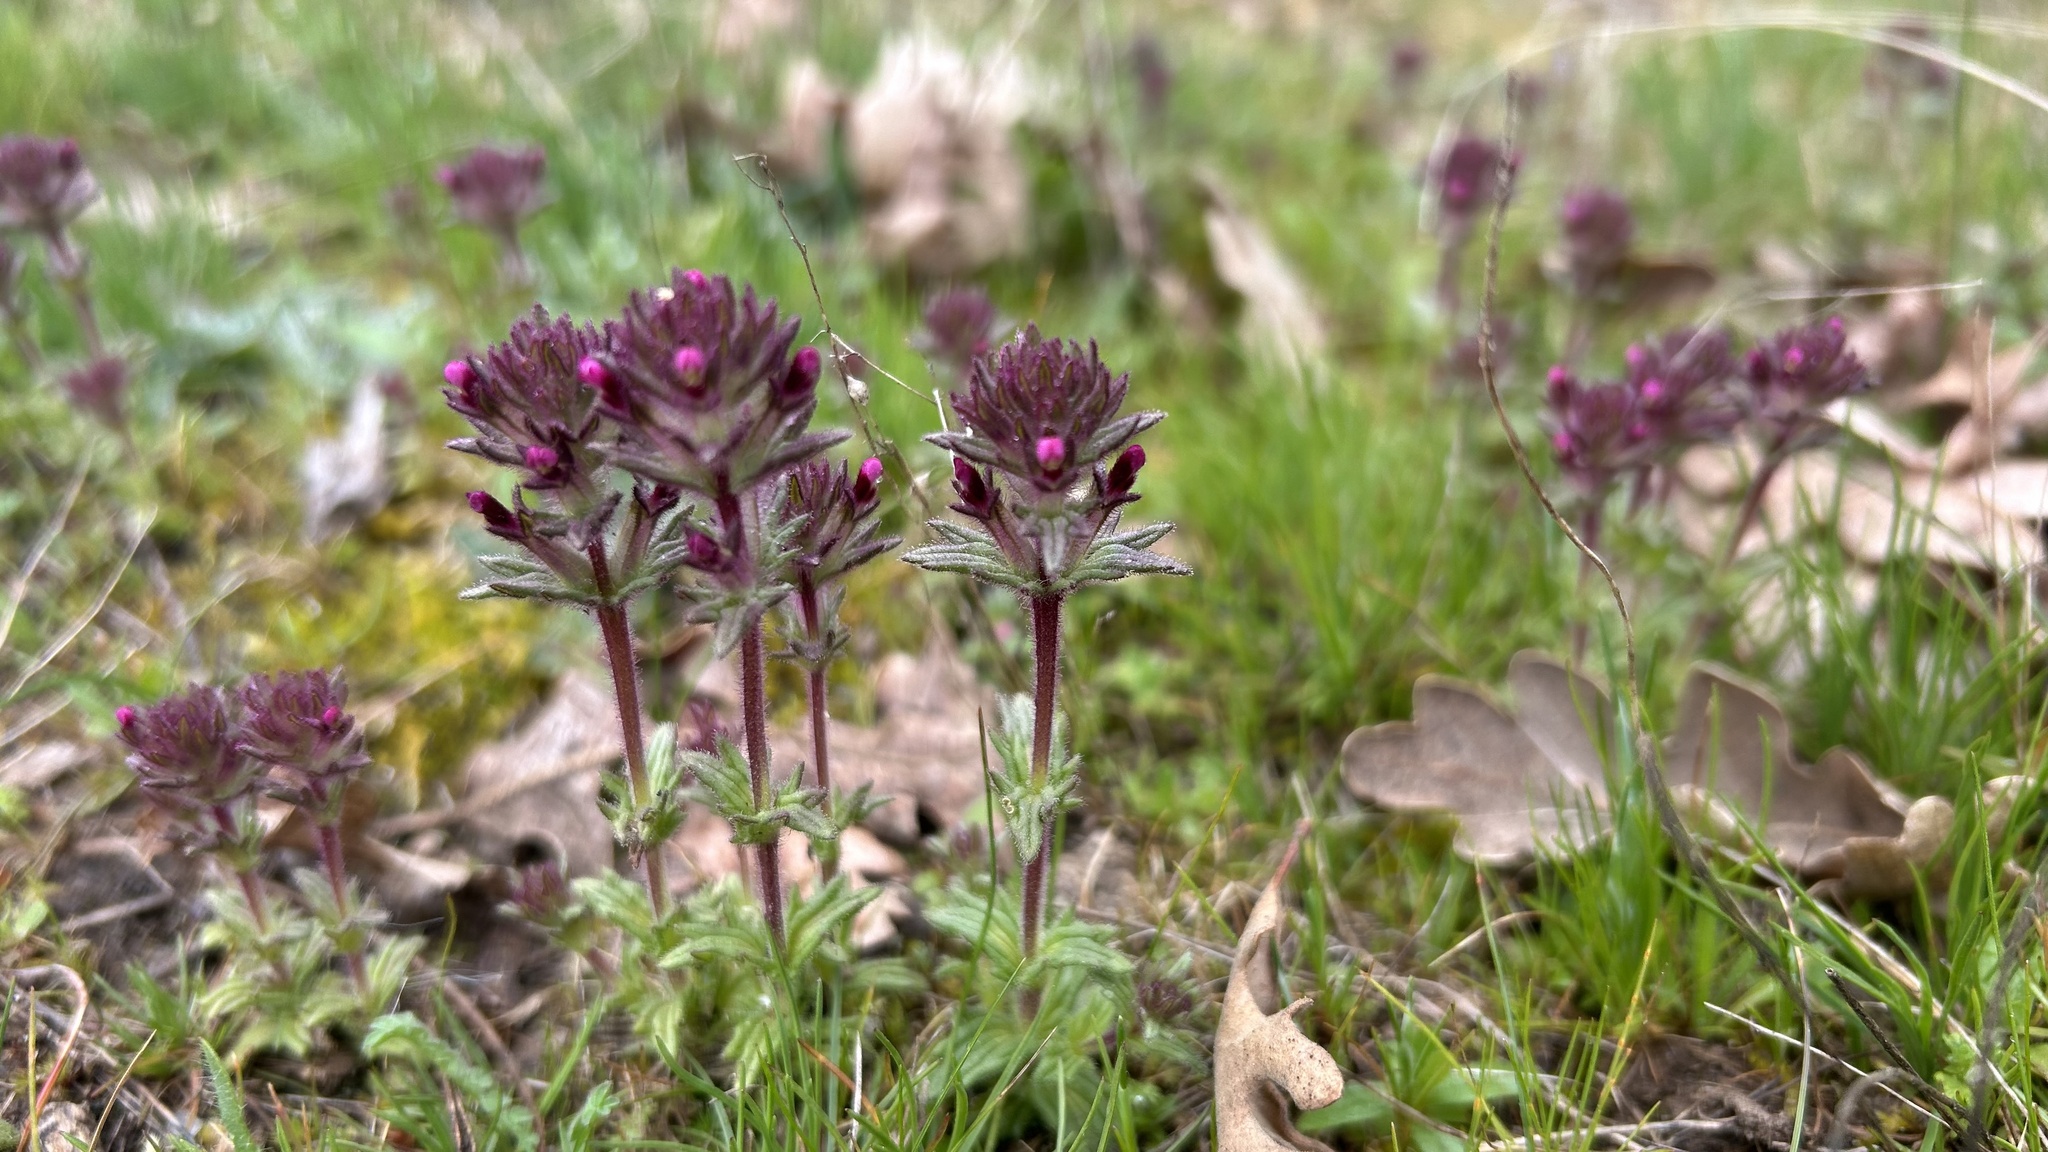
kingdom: Plantae
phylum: Tracheophyta
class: Magnoliopsida
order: Lamiales
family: Orobanchaceae
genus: Parentucellia
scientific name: Parentucellia latifolia
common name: Broadleaf glandweed
